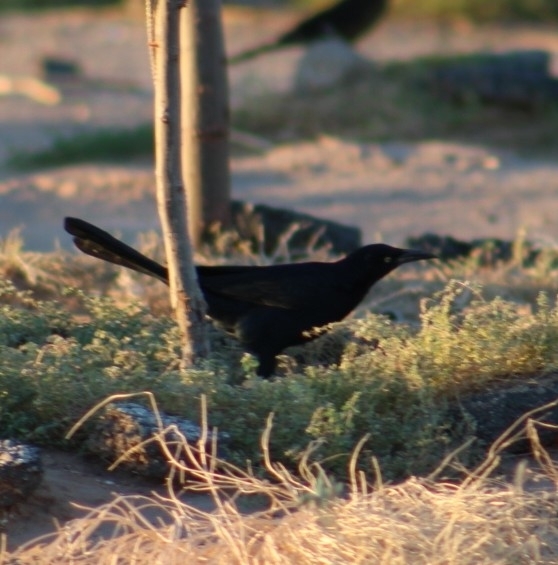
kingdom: Animalia
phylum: Chordata
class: Aves
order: Passeriformes
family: Icteridae
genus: Quiscalus
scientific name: Quiscalus mexicanus
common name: Great-tailed grackle
